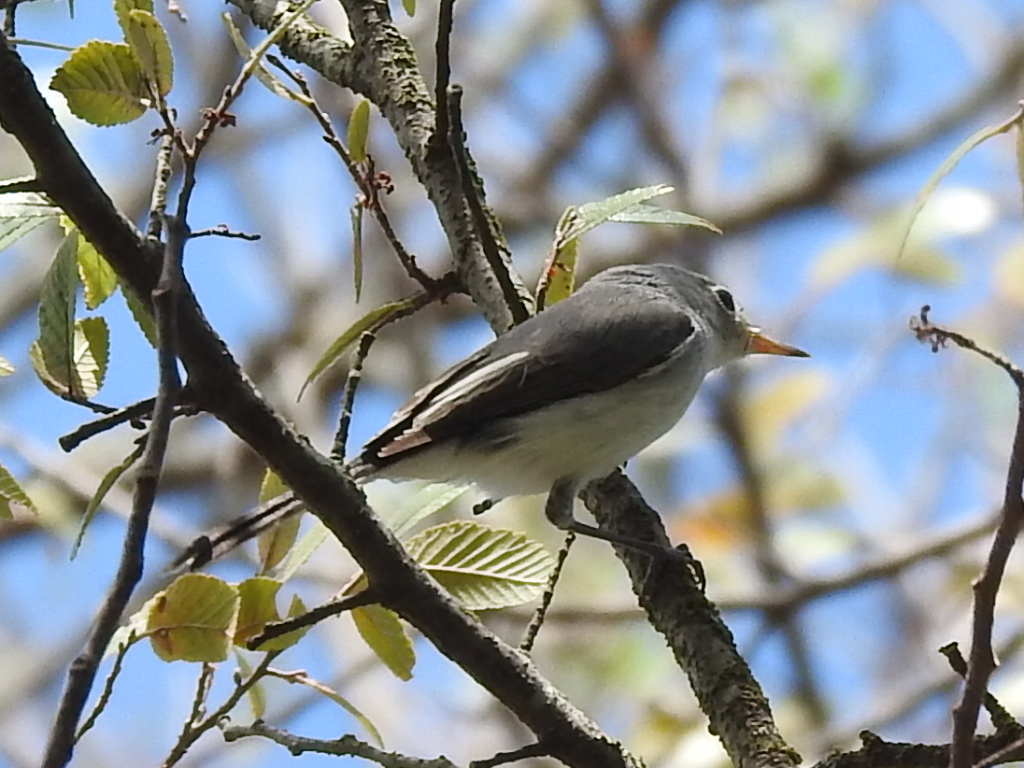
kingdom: Animalia
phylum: Chordata
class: Aves
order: Passeriformes
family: Polioptilidae
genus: Polioptila
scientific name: Polioptila caerulea
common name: Blue-gray gnatcatcher
